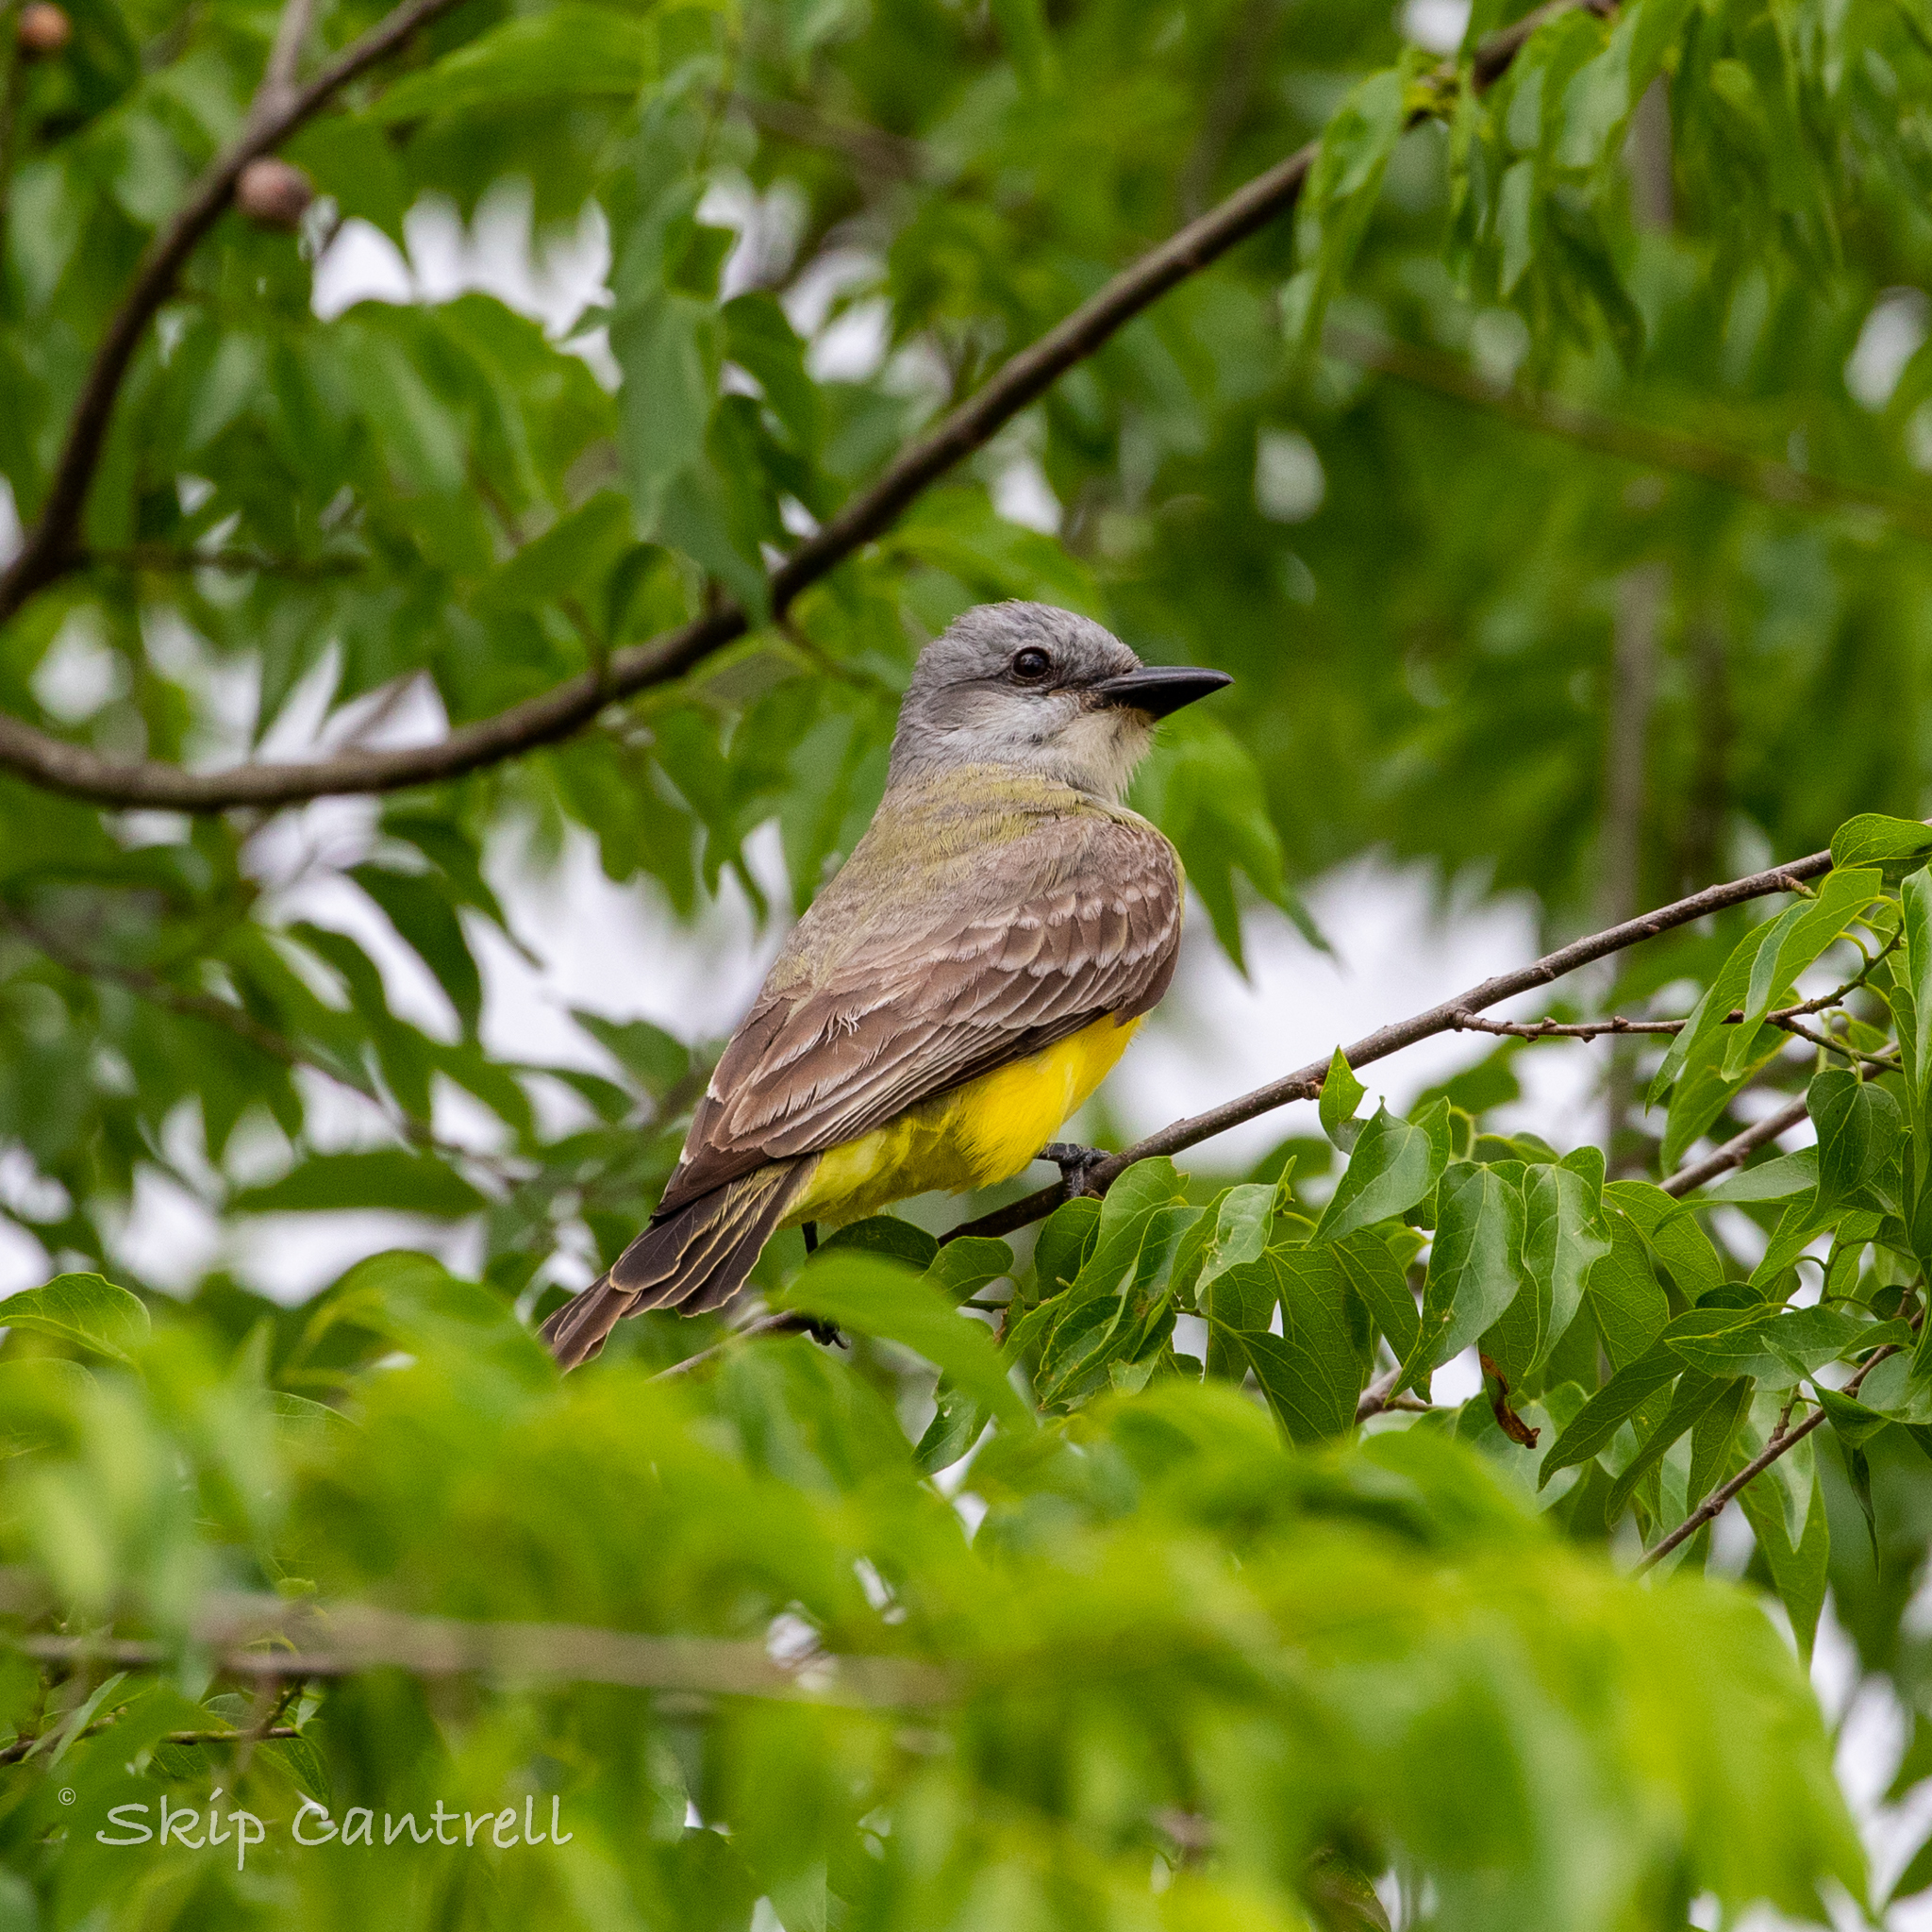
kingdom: Animalia
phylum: Chordata
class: Aves
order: Passeriformes
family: Tyrannidae
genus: Tyrannus
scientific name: Tyrannus couchii
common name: Couch's kingbird
